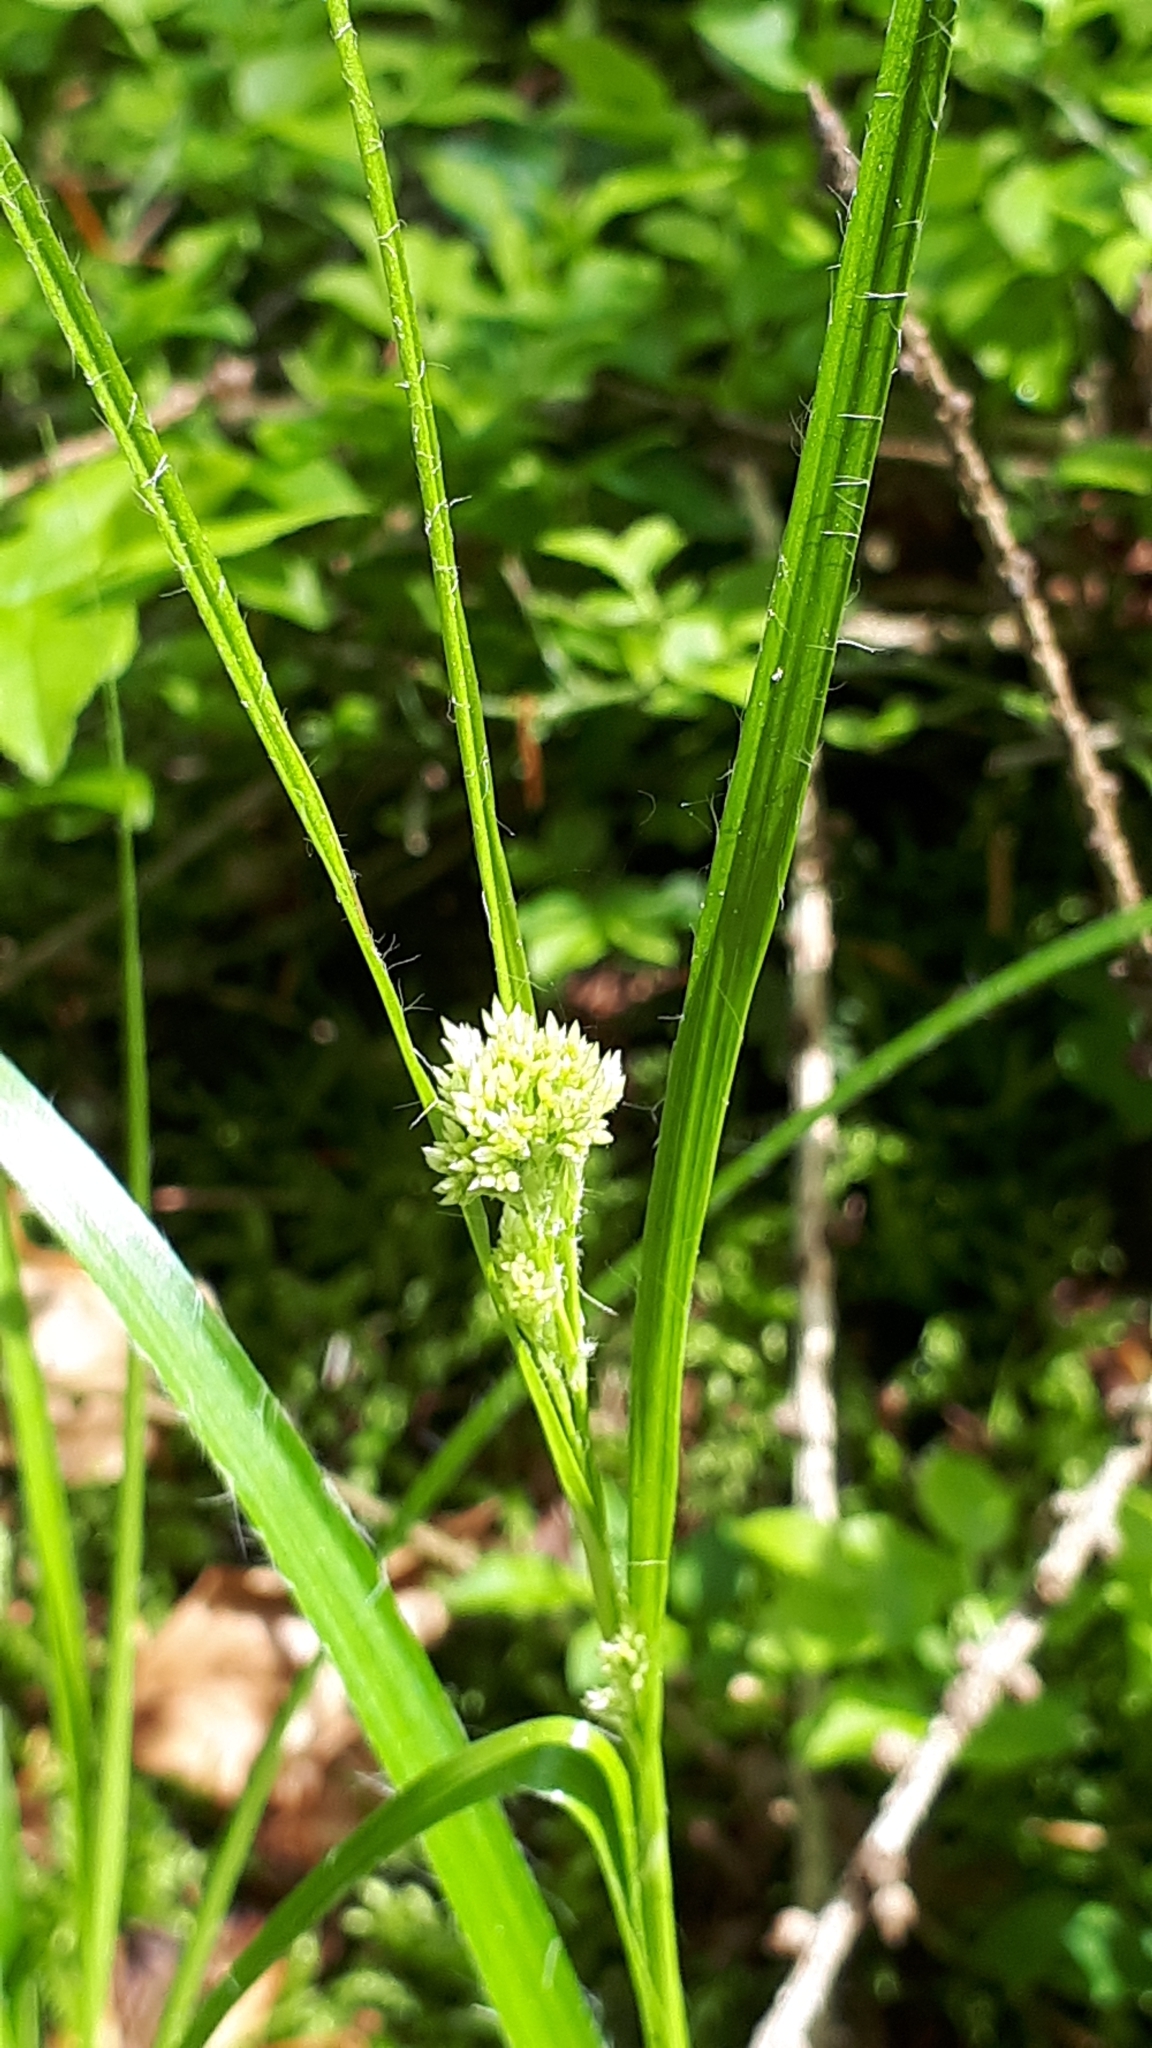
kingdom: Plantae
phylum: Tracheophyta
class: Liliopsida
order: Poales
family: Juncaceae
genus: Luzula
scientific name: Luzula luzuloides
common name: White wood-rush
